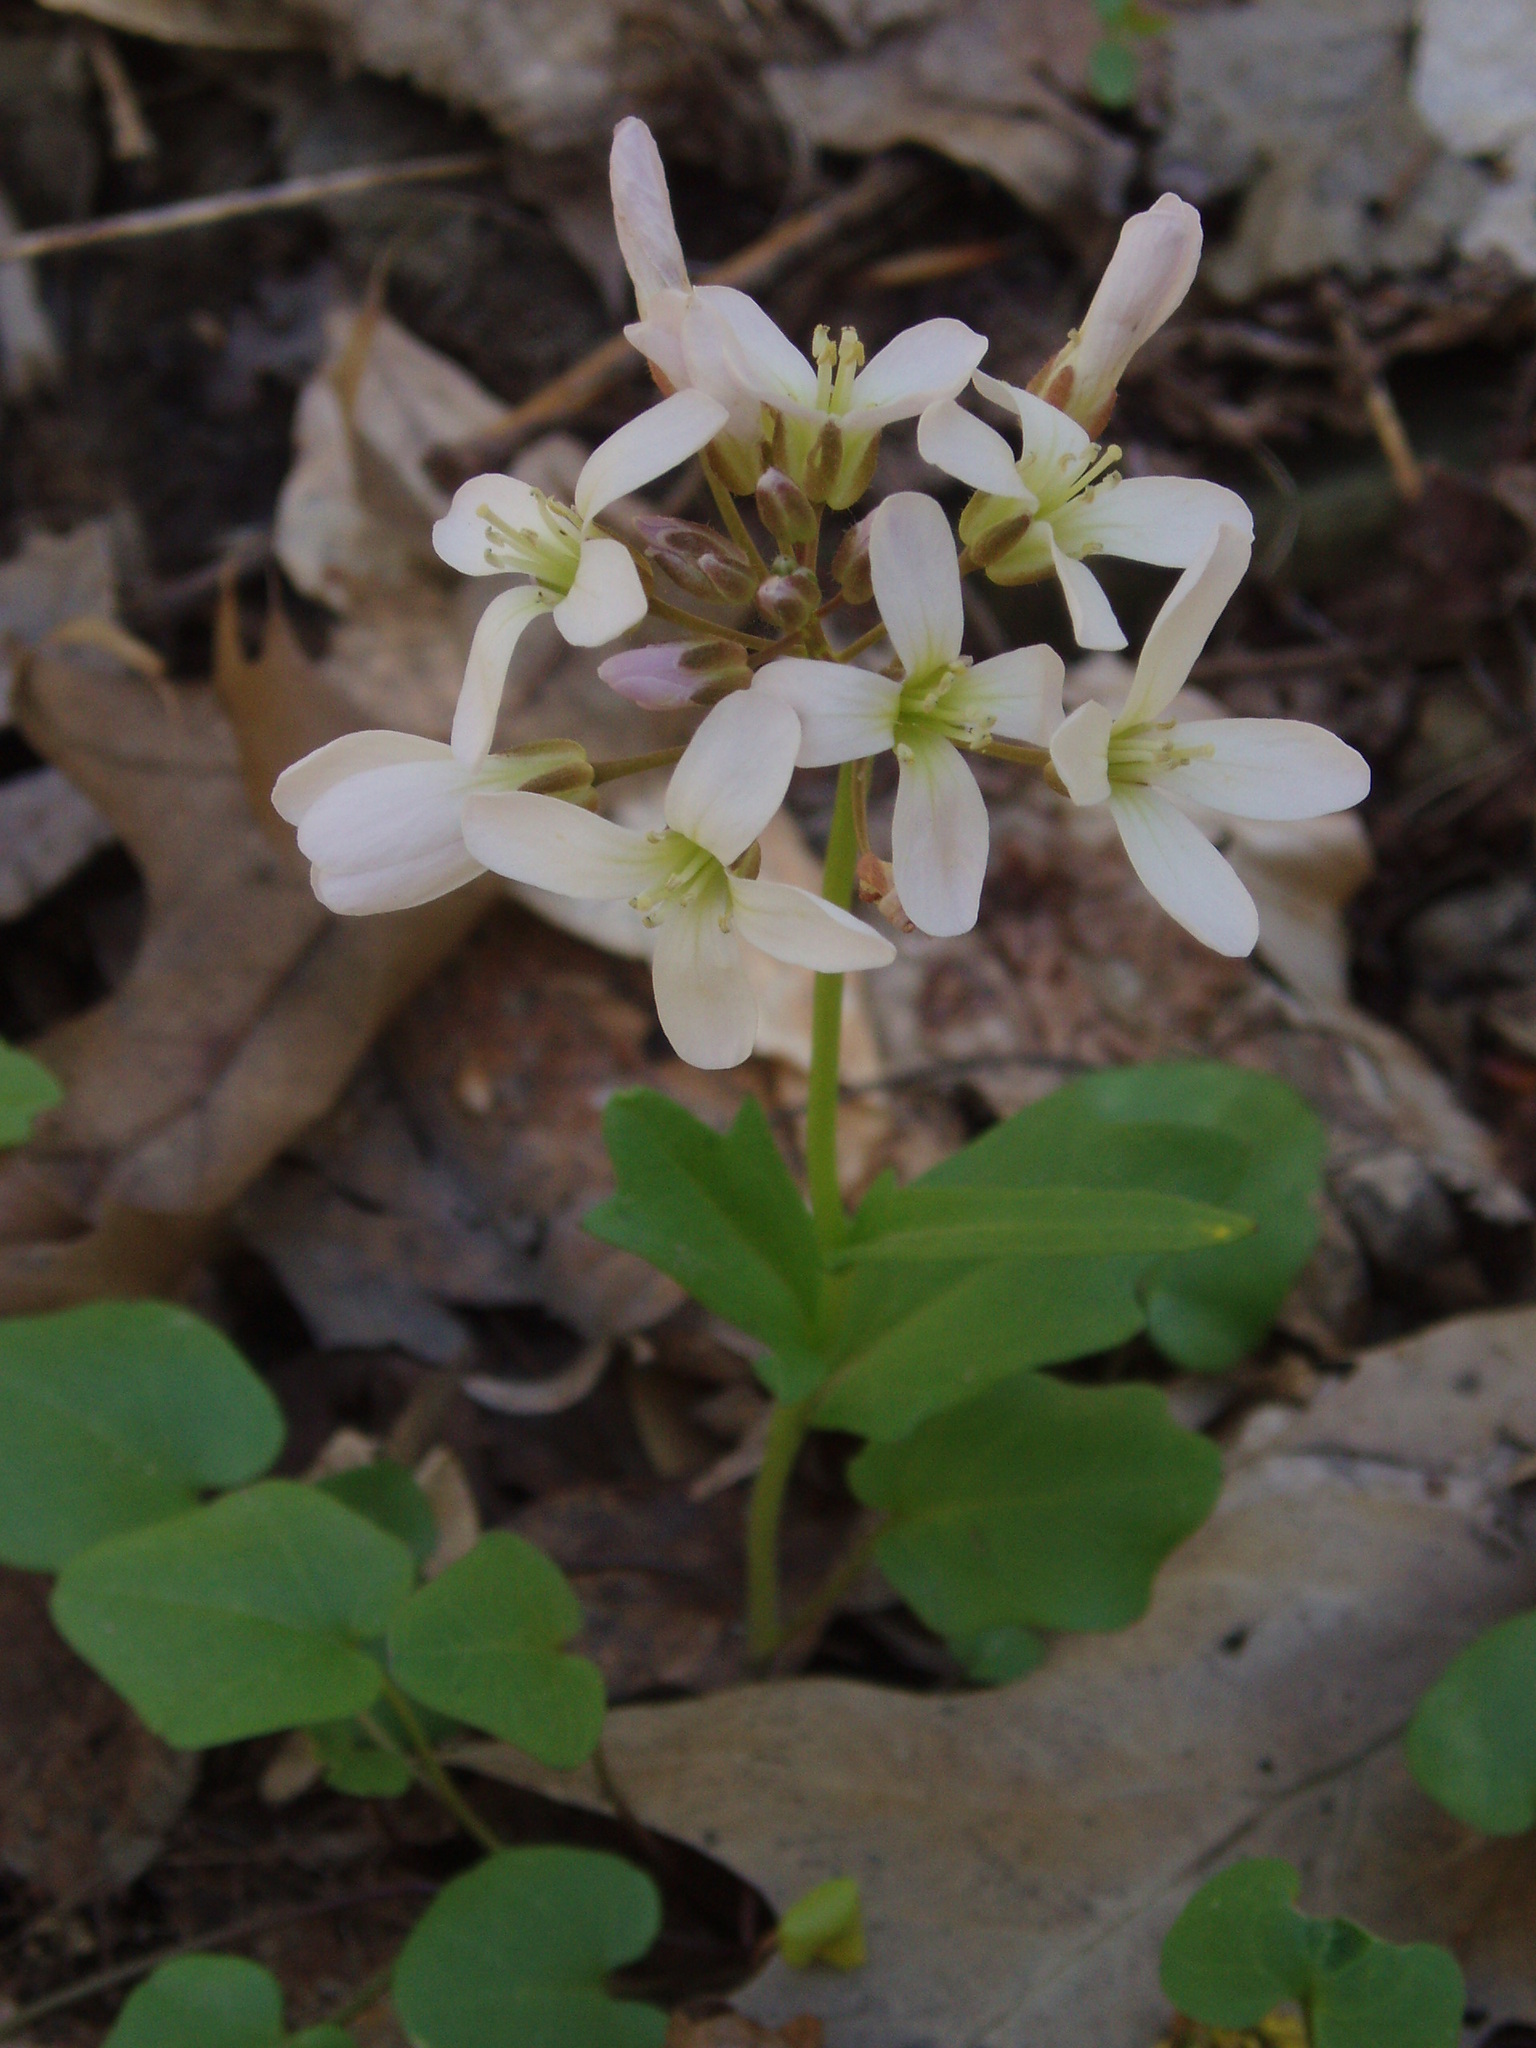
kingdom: Plantae
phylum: Tracheophyta
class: Magnoliopsida
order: Brassicales
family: Brassicaceae
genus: Cardamine
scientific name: Cardamine douglassii
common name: Purple cress
